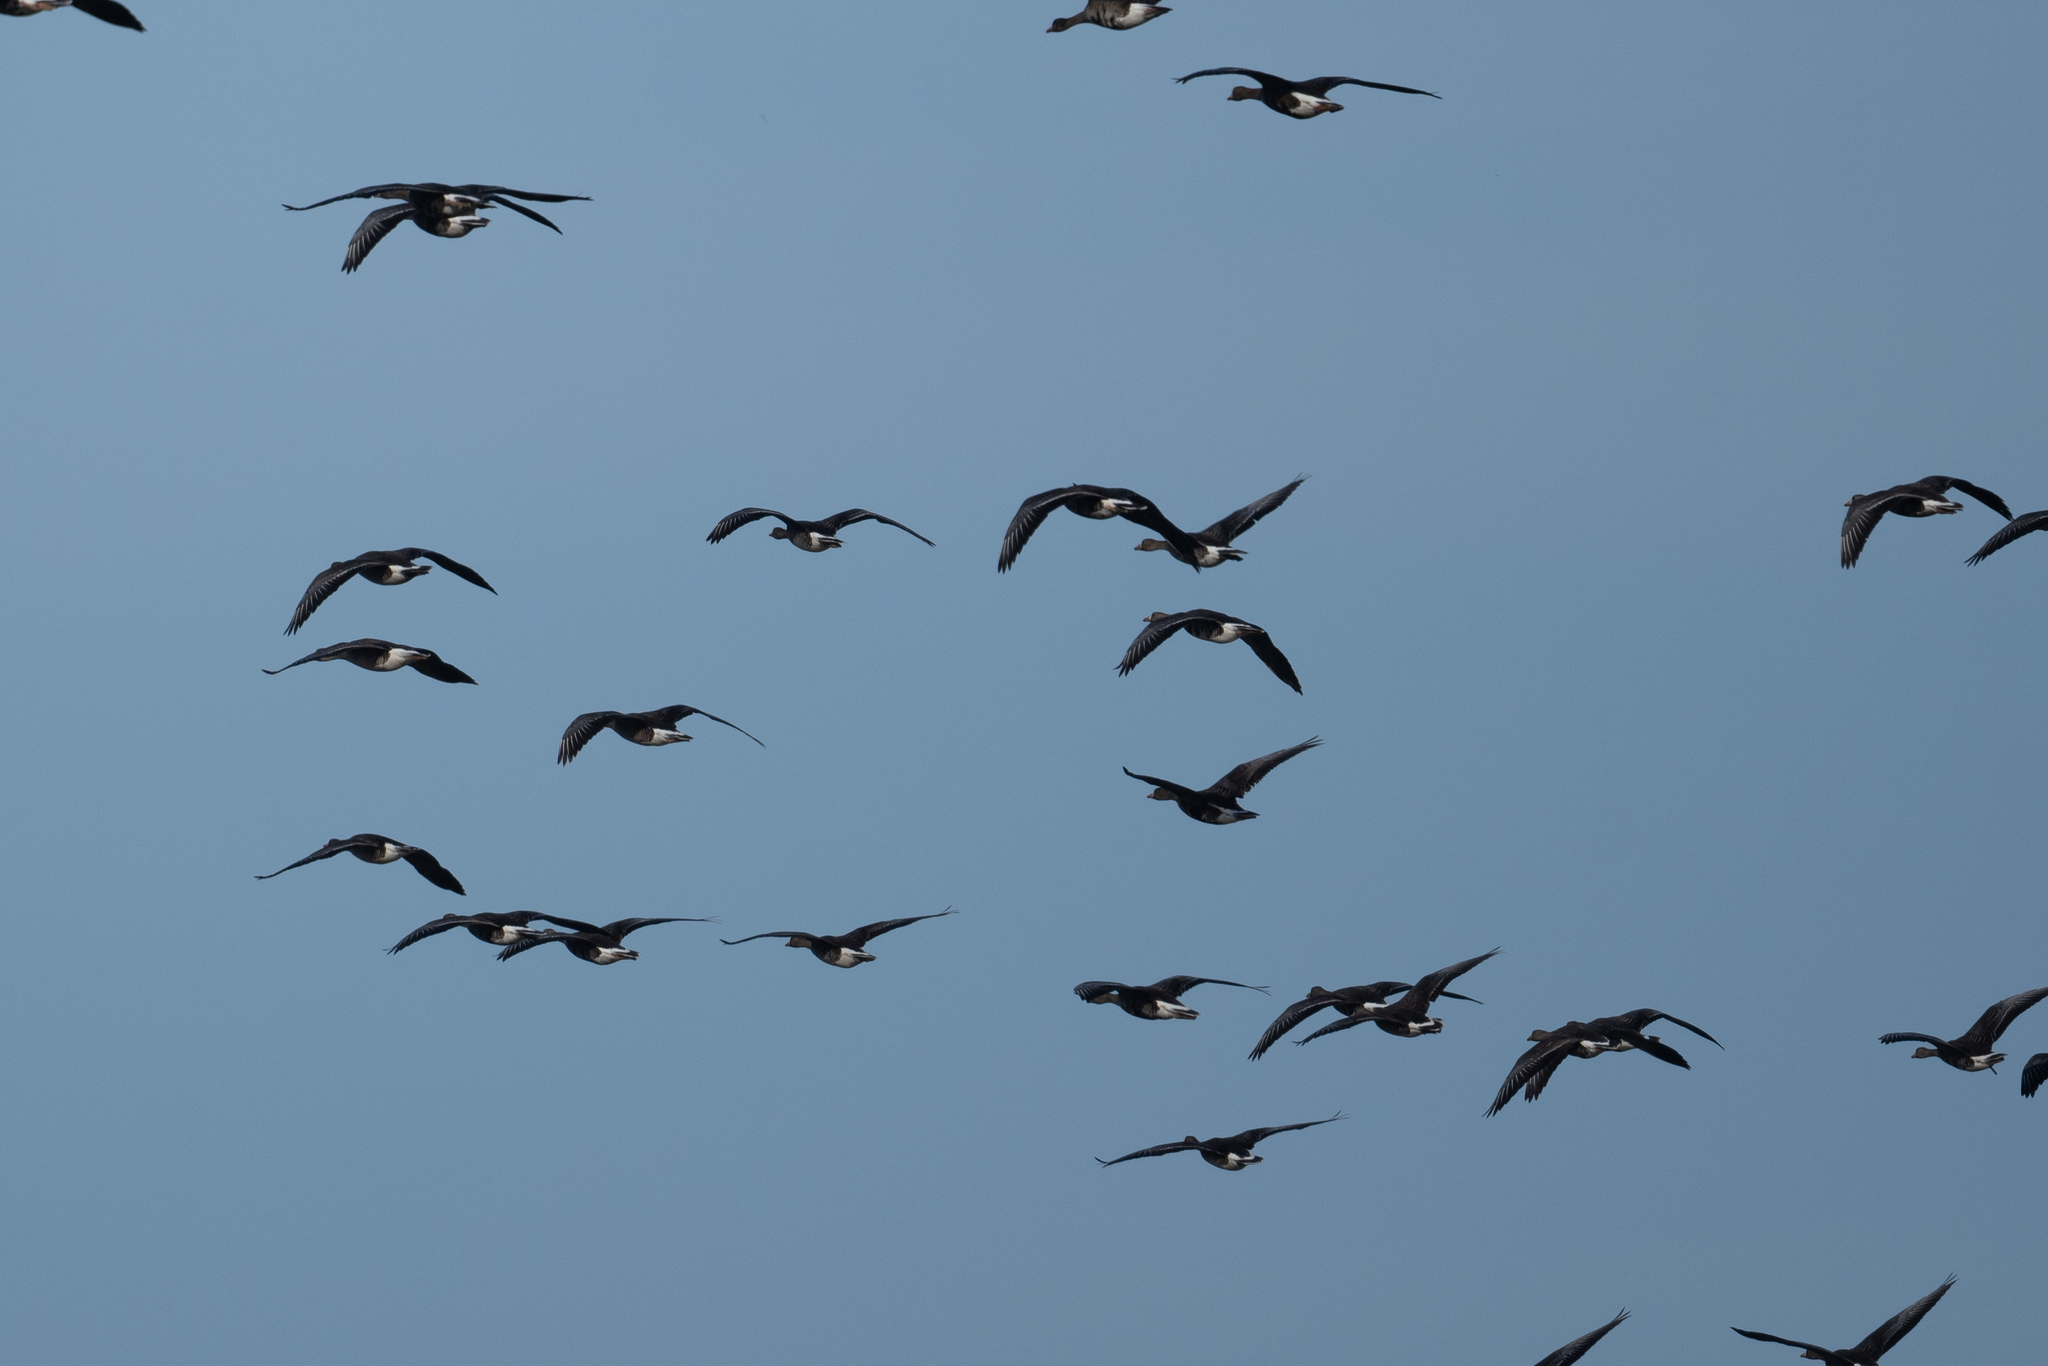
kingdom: Animalia
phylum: Chordata
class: Aves
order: Anseriformes
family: Anatidae
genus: Anser
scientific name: Anser albifrons
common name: Greater white-fronted goose
